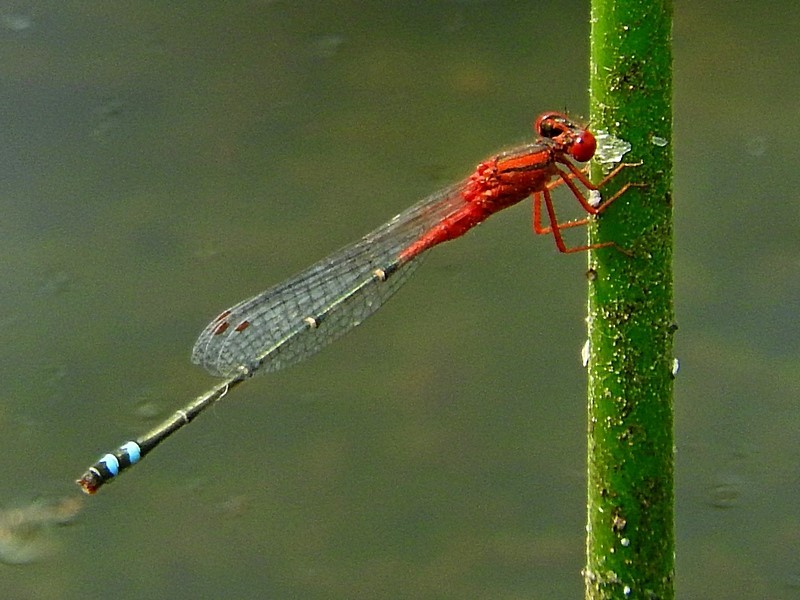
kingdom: Animalia
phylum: Arthropoda
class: Insecta
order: Odonata
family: Coenagrionidae
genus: Xanthagrion
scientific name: Xanthagrion erythroneurum
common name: Red and blue damsel
